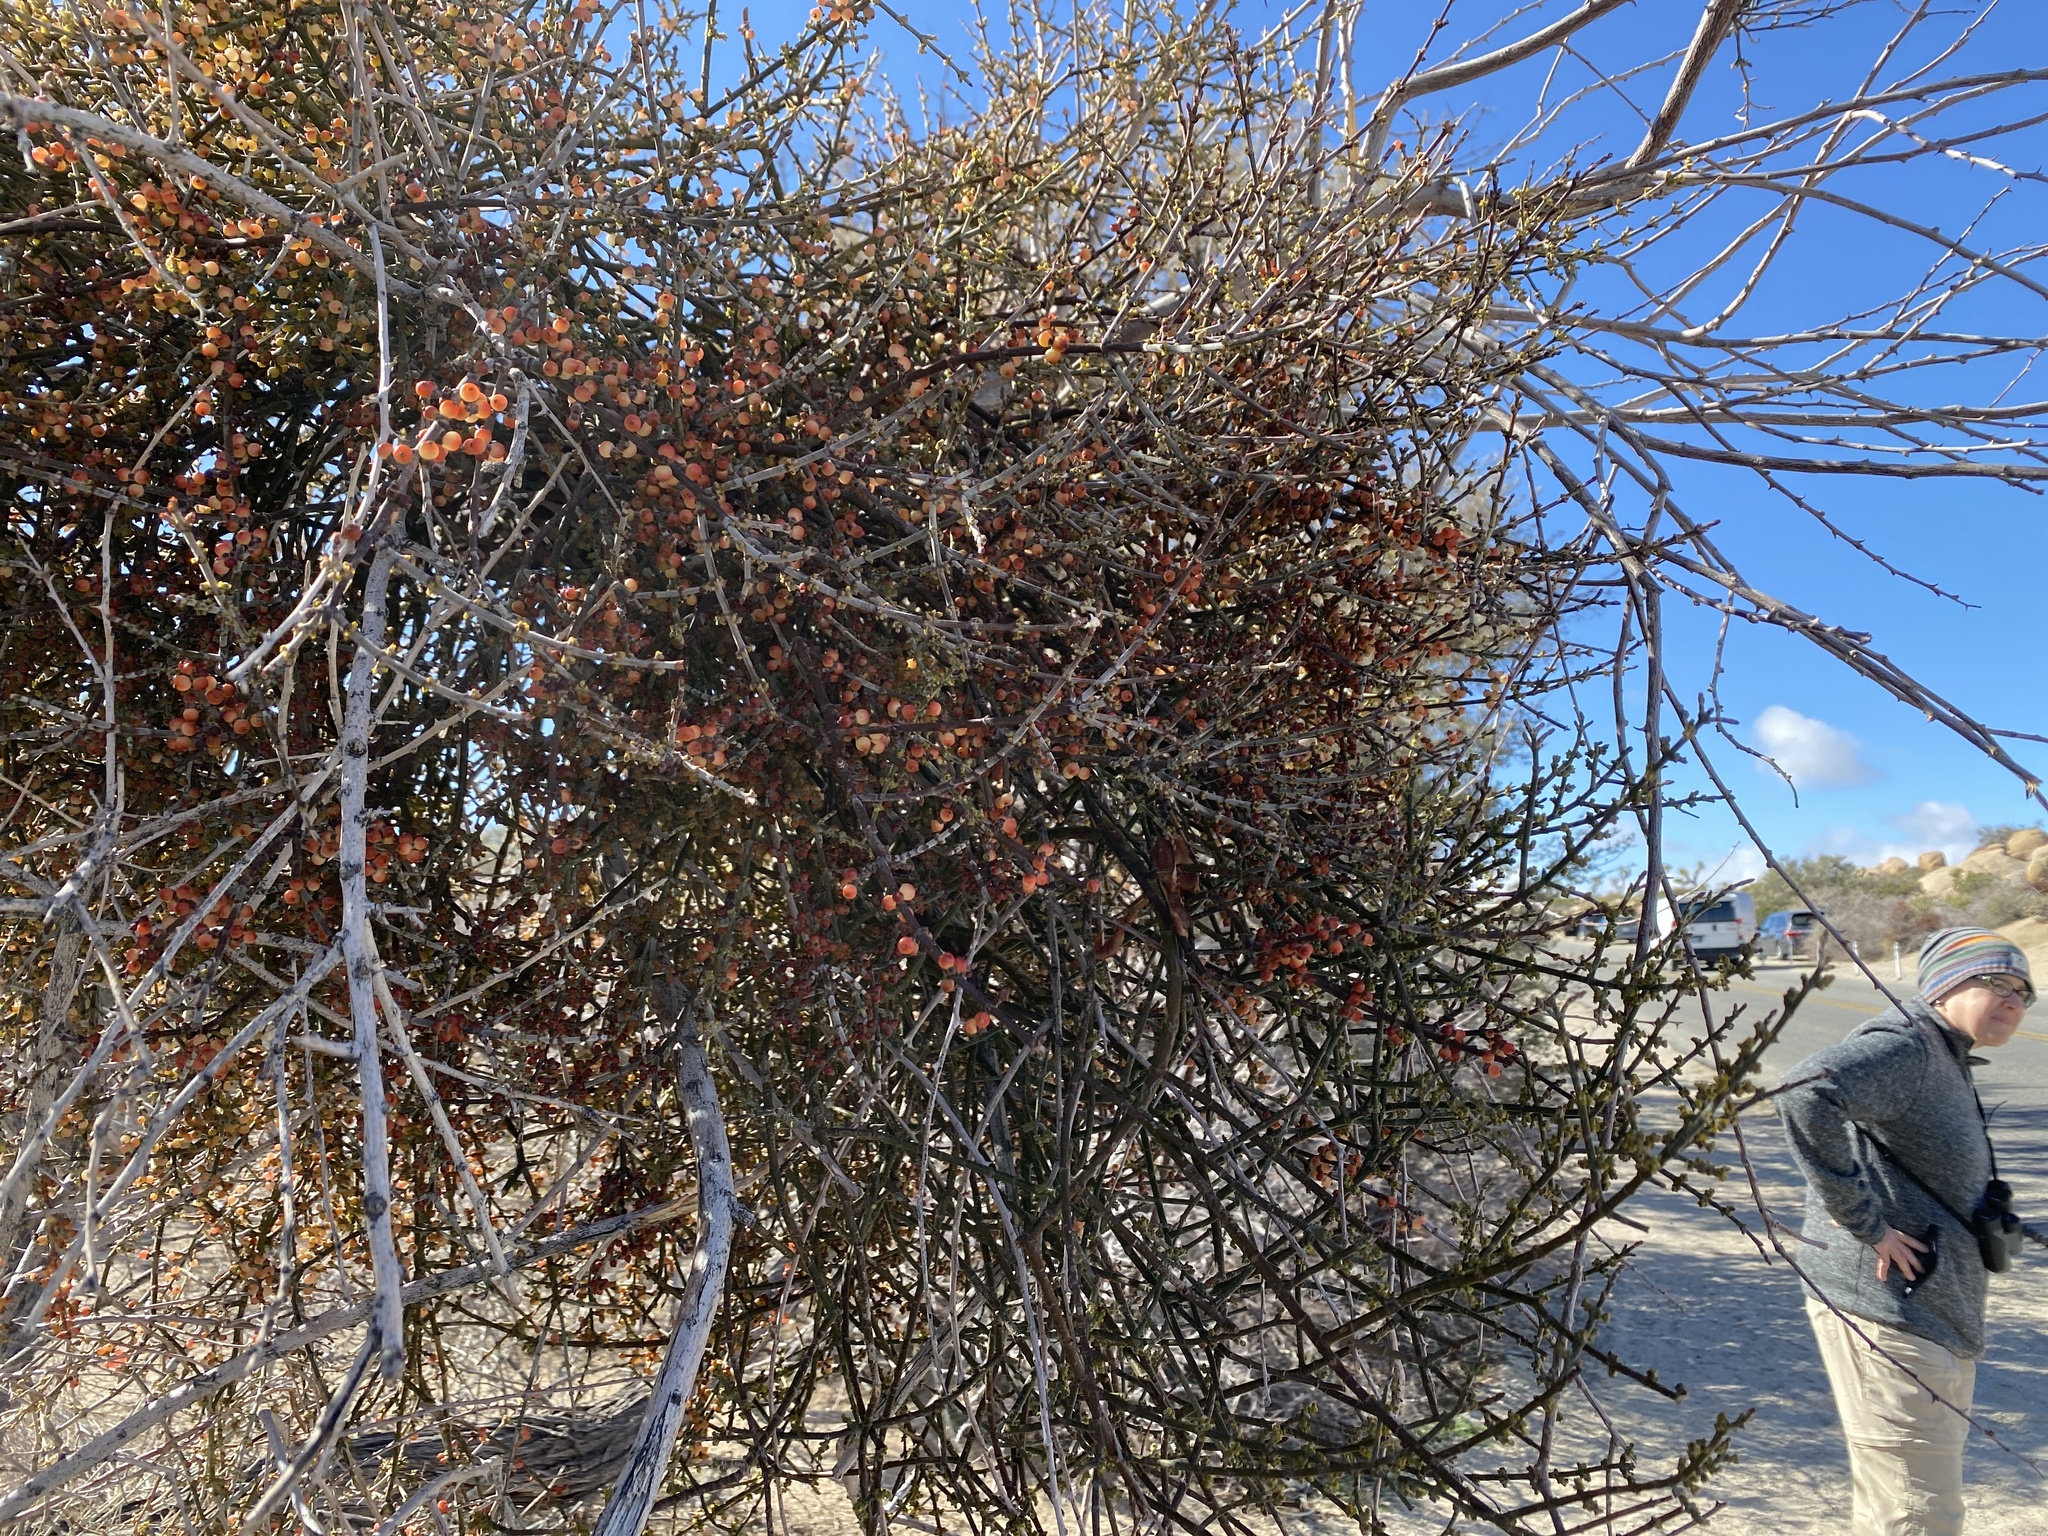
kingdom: Plantae
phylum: Tracheophyta
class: Magnoliopsida
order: Santalales
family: Viscaceae
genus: Phoradendron
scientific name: Phoradendron californicum
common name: Acacia mistletoe
